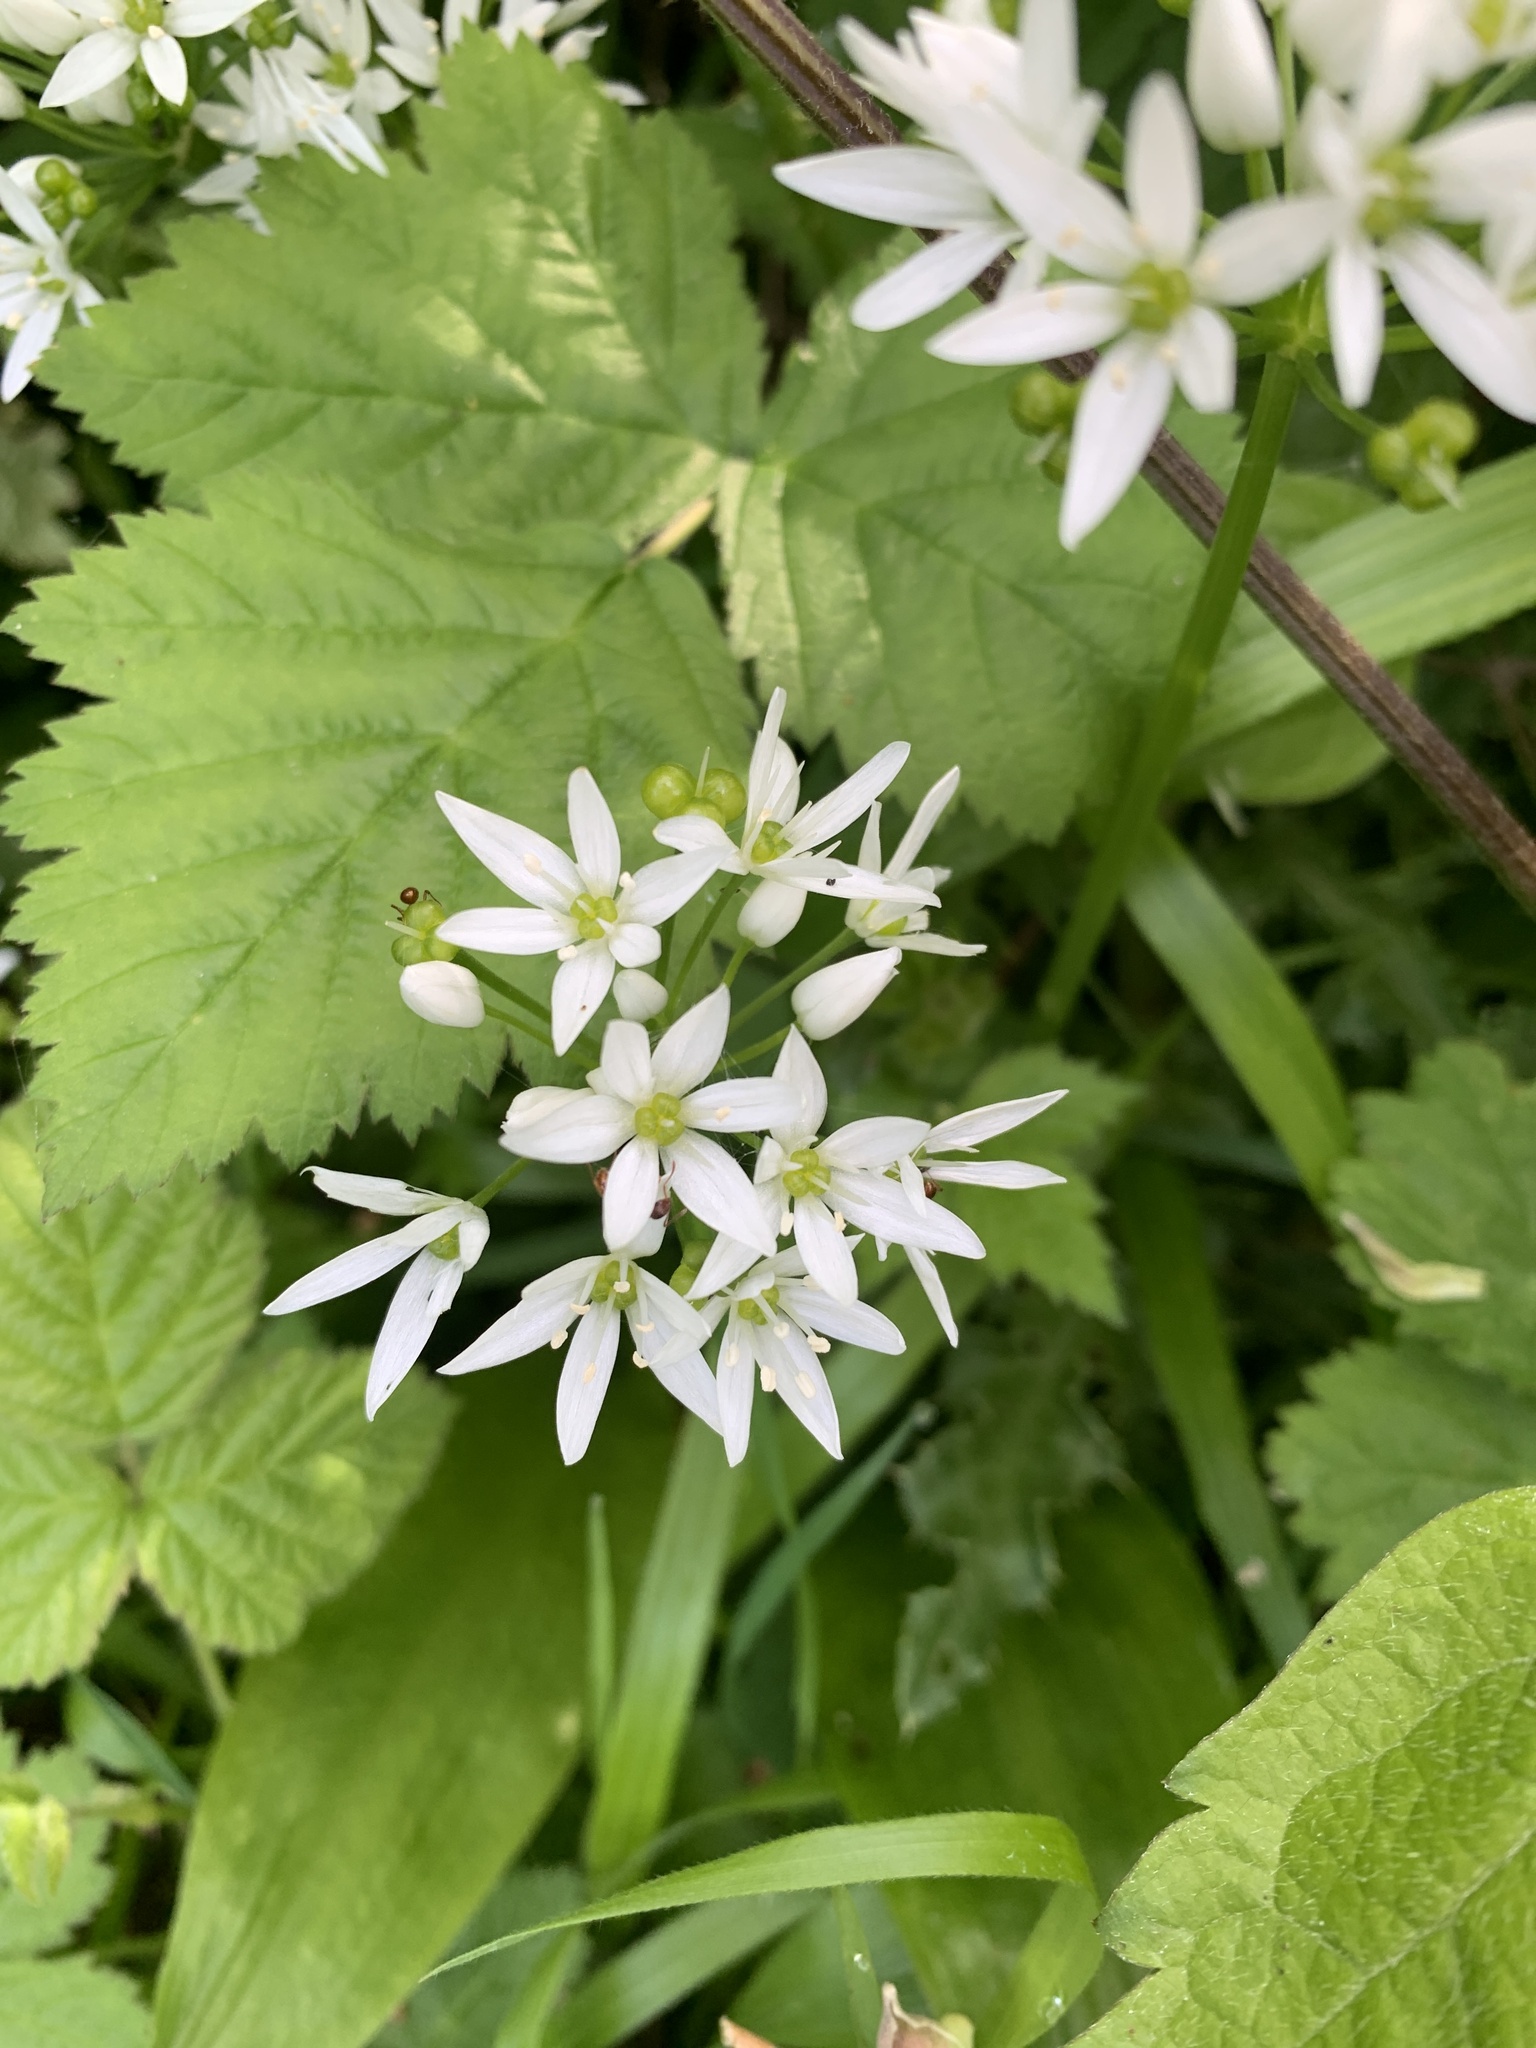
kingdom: Plantae
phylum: Tracheophyta
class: Liliopsida
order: Asparagales
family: Amaryllidaceae
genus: Allium
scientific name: Allium ursinum
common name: Ramsons
